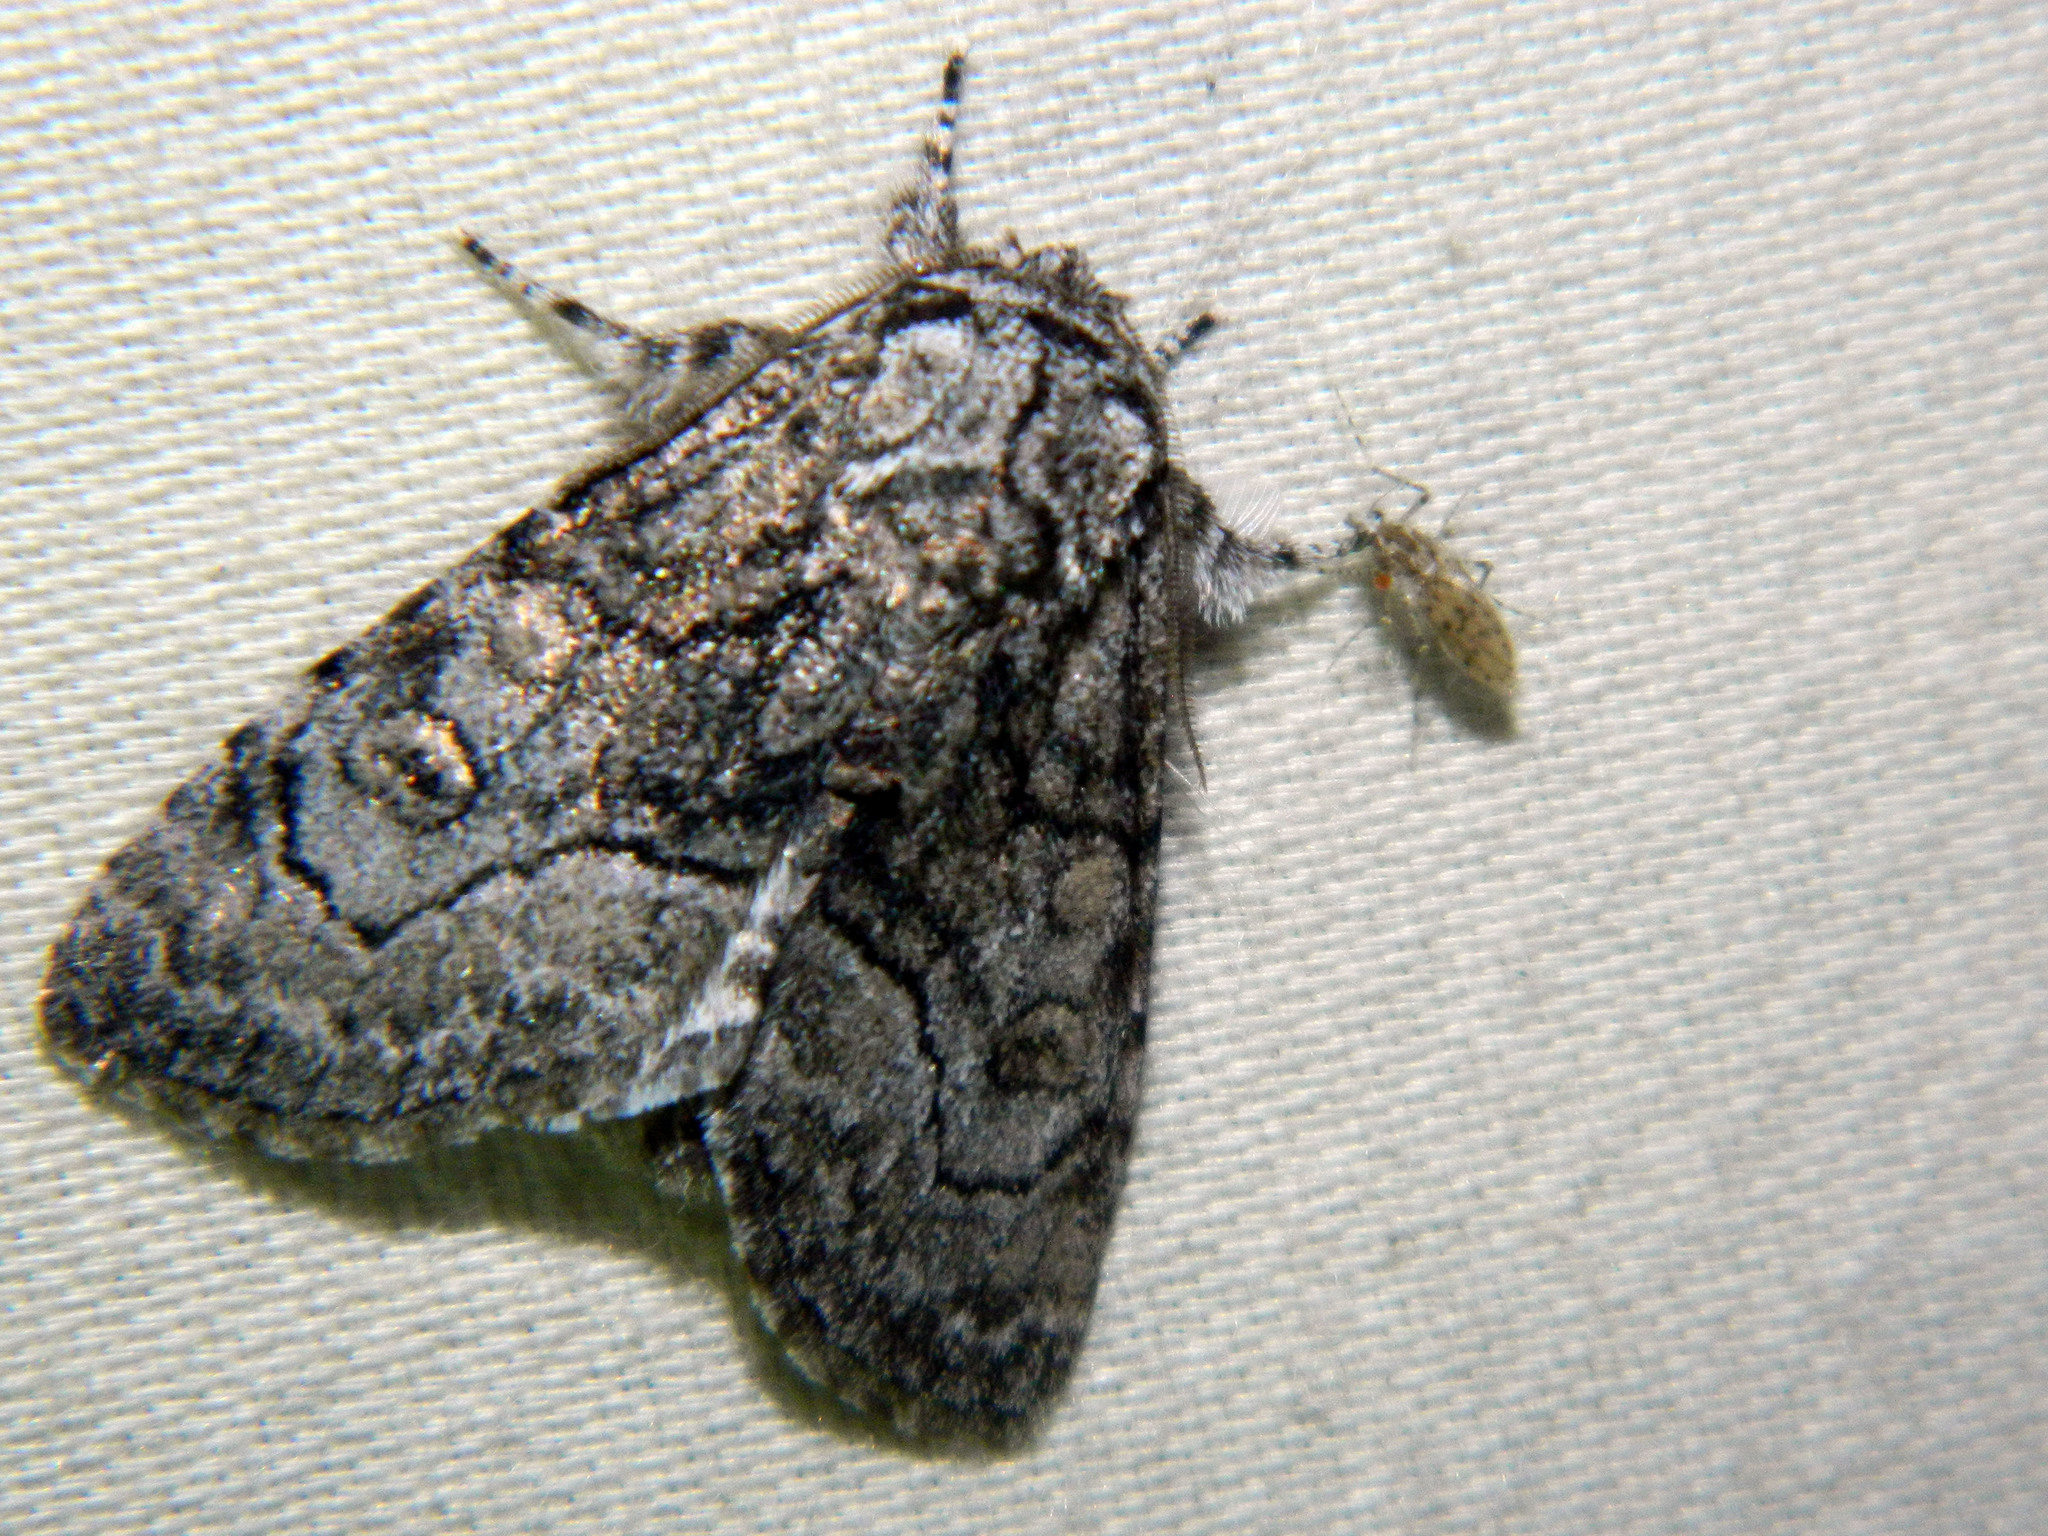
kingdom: Animalia
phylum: Arthropoda
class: Insecta
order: Lepidoptera
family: Noctuidae
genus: Raphia
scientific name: Raphia frater
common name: Brother
